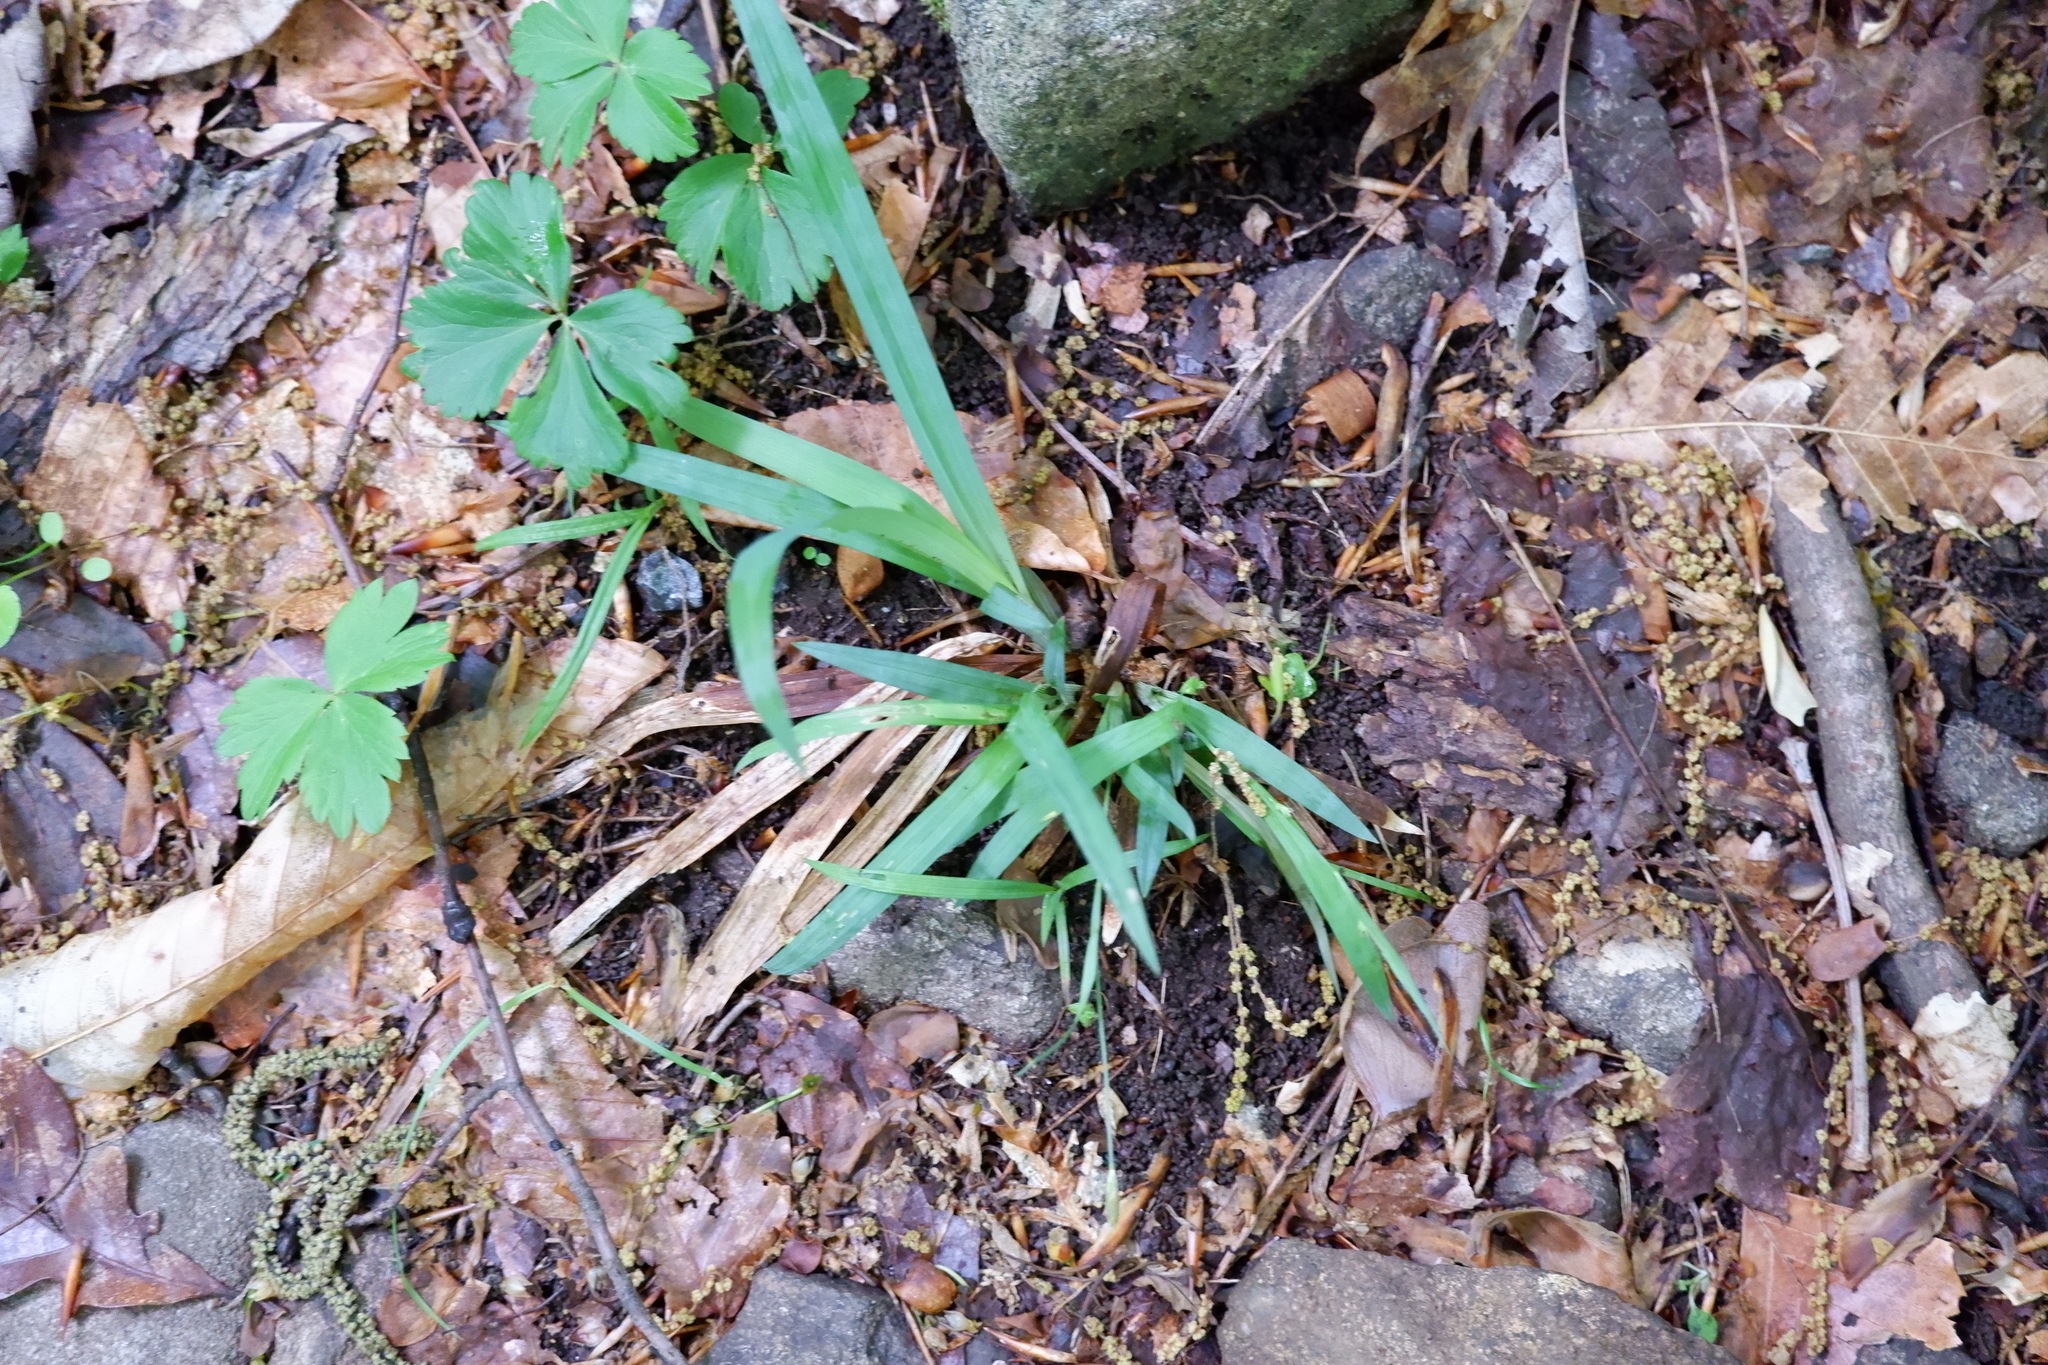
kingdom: Plantae
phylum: Tracheophyta
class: Liliopsida
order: Poales
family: Cyperaceae
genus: Carex
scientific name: Carex laxiculmis
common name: Spreading sedge
